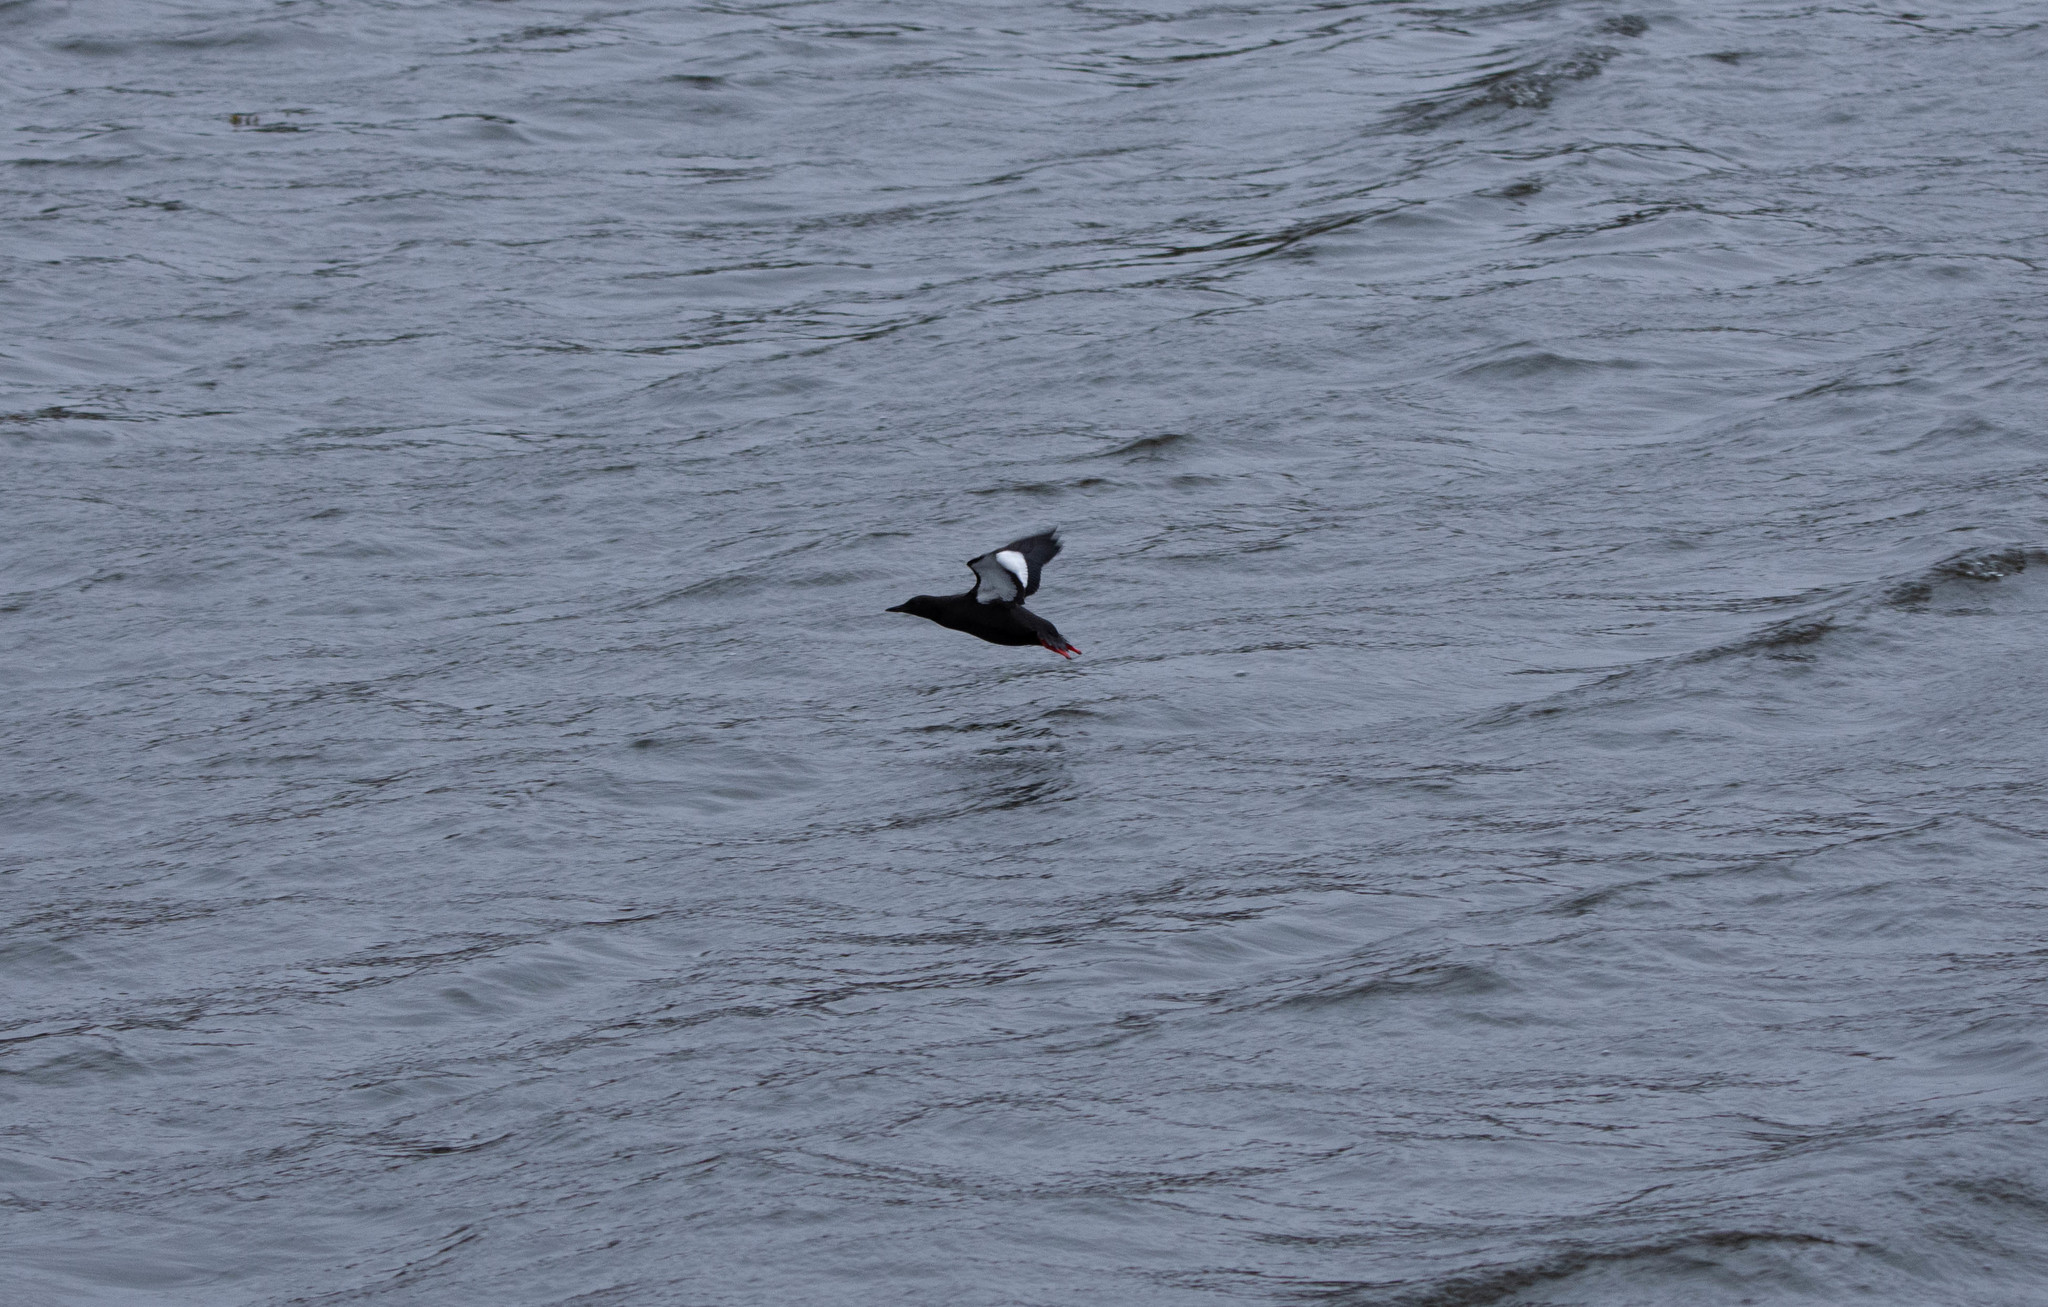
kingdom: Animalia
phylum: Chordata
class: Aves
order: Charadriiformes
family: Alcidae
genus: Cepphus
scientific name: Cepphus grylle
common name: Black guillemot
